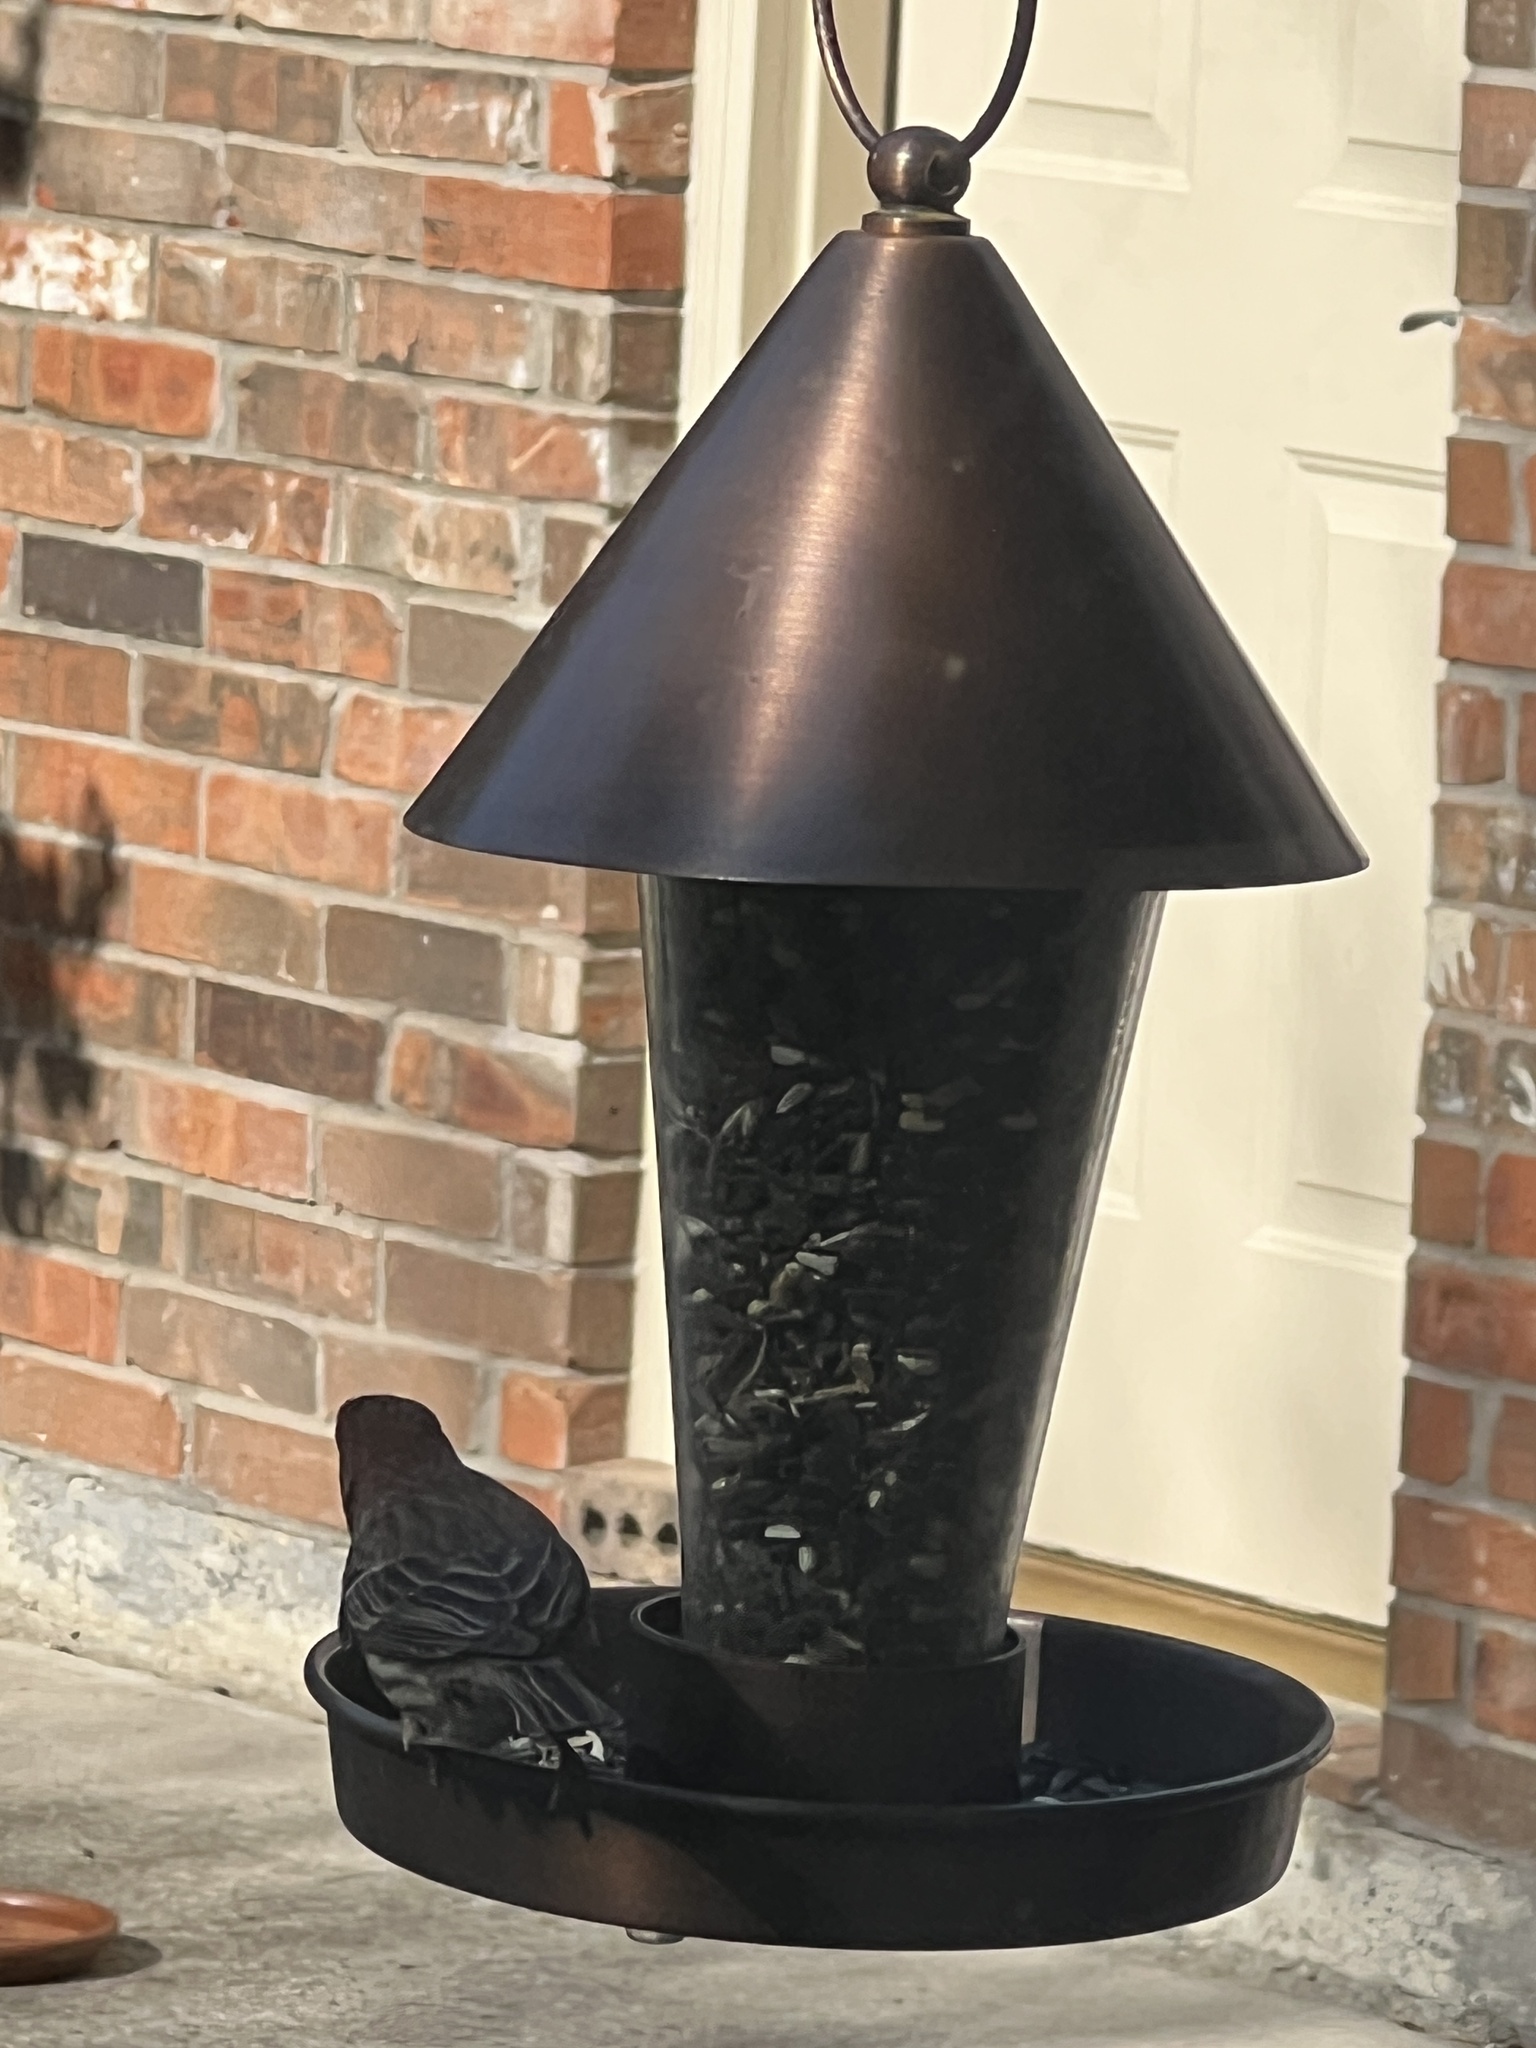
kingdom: Animalia
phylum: Chordata
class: Aves
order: Passeriformes
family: Fringillidae
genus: Haemorhous
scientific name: Haemorhous mexicanus
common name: House finch
